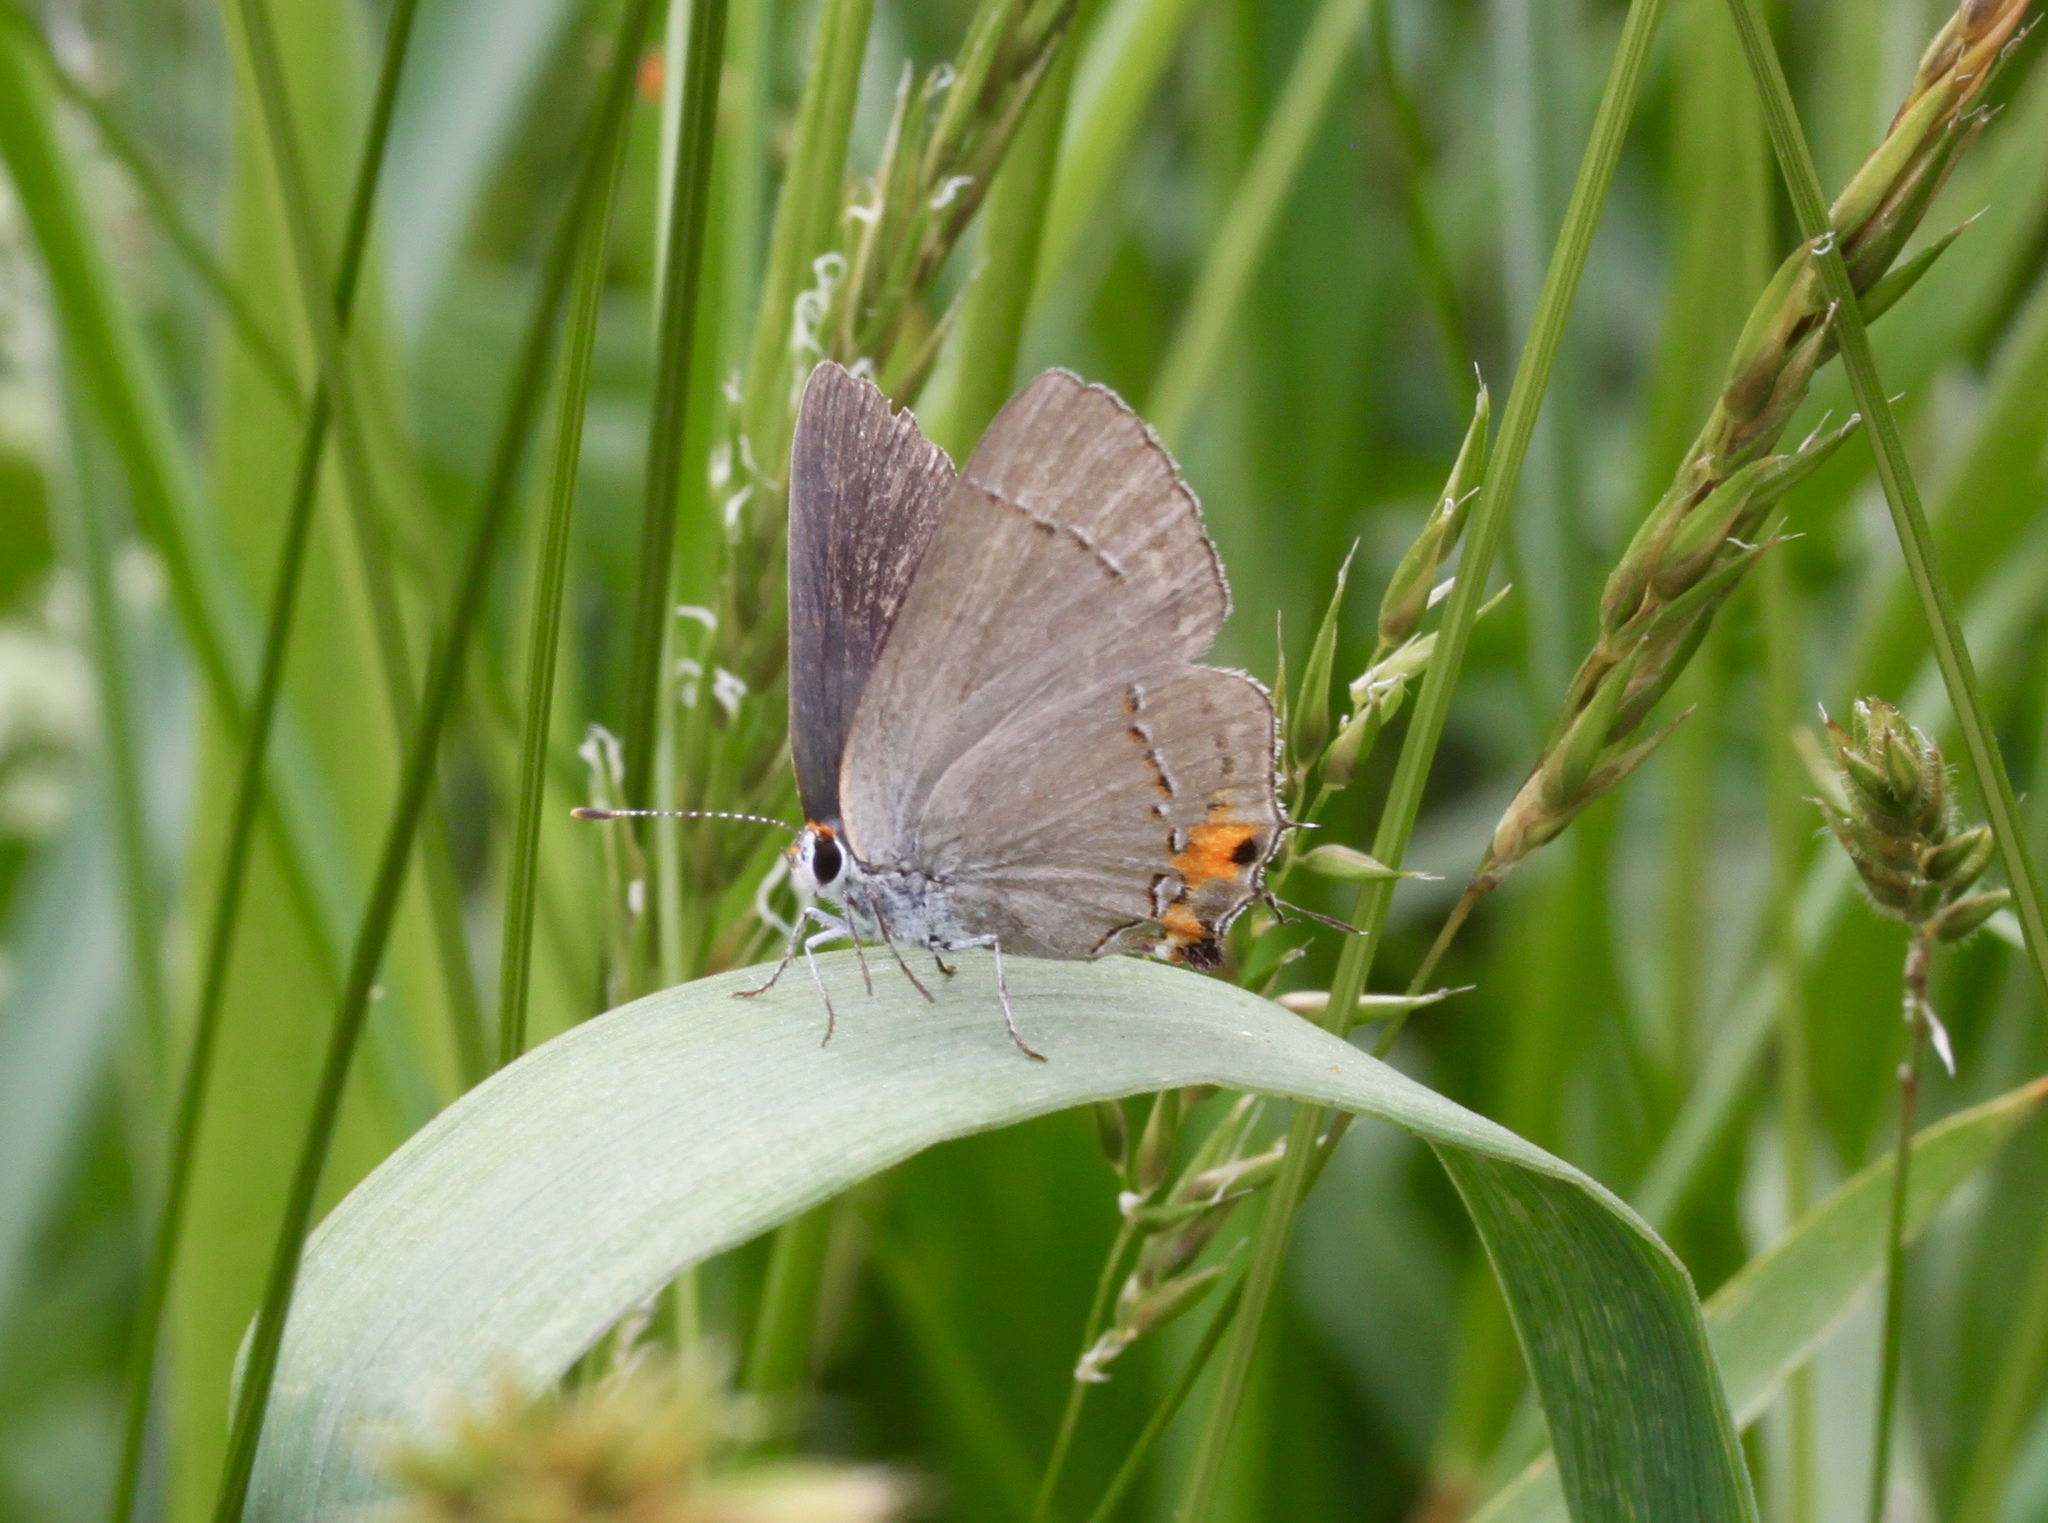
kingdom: Animalia
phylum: Arthropoda
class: Insecta
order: Lepidoptera
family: Lycaenidae
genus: Strymon
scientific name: Strymon melinus
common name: Gray hairstreak
